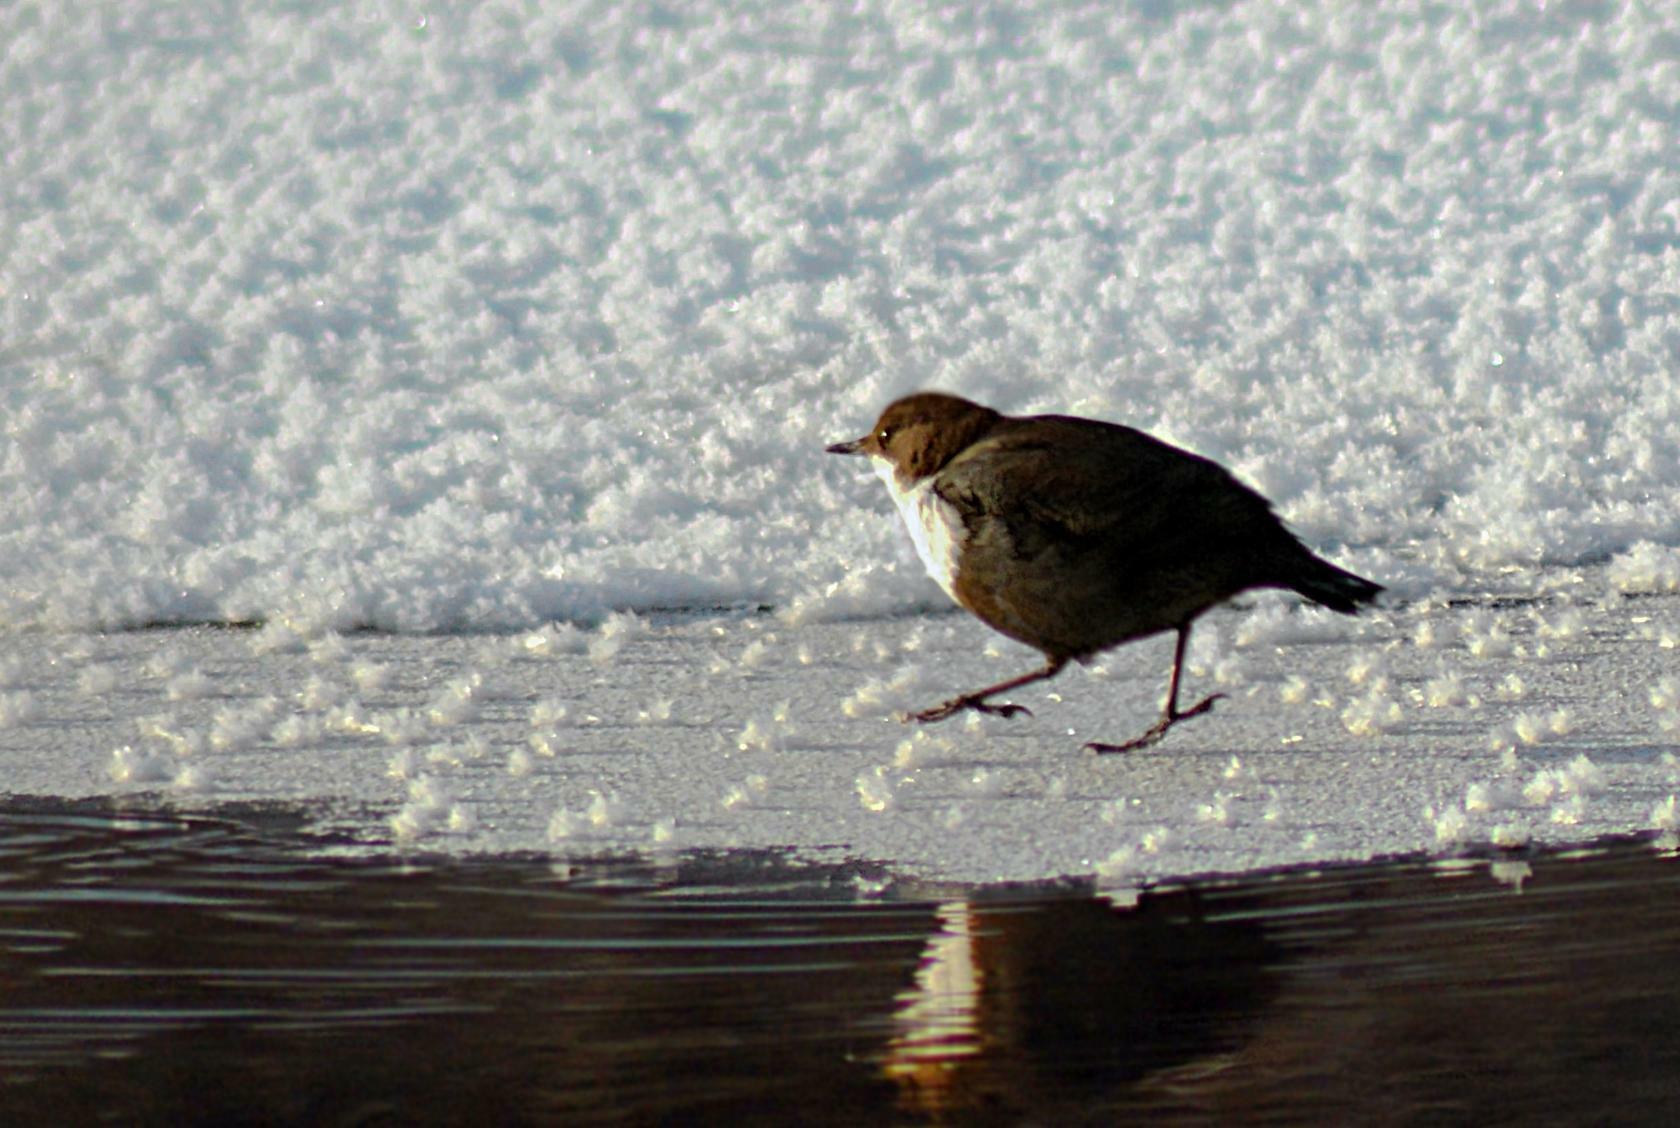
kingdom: Animalia
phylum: Chordata
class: Aves
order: Passeriformes
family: Cinclidae
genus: Cinclus
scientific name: Cinclus cinclus
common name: White-throated dipper
